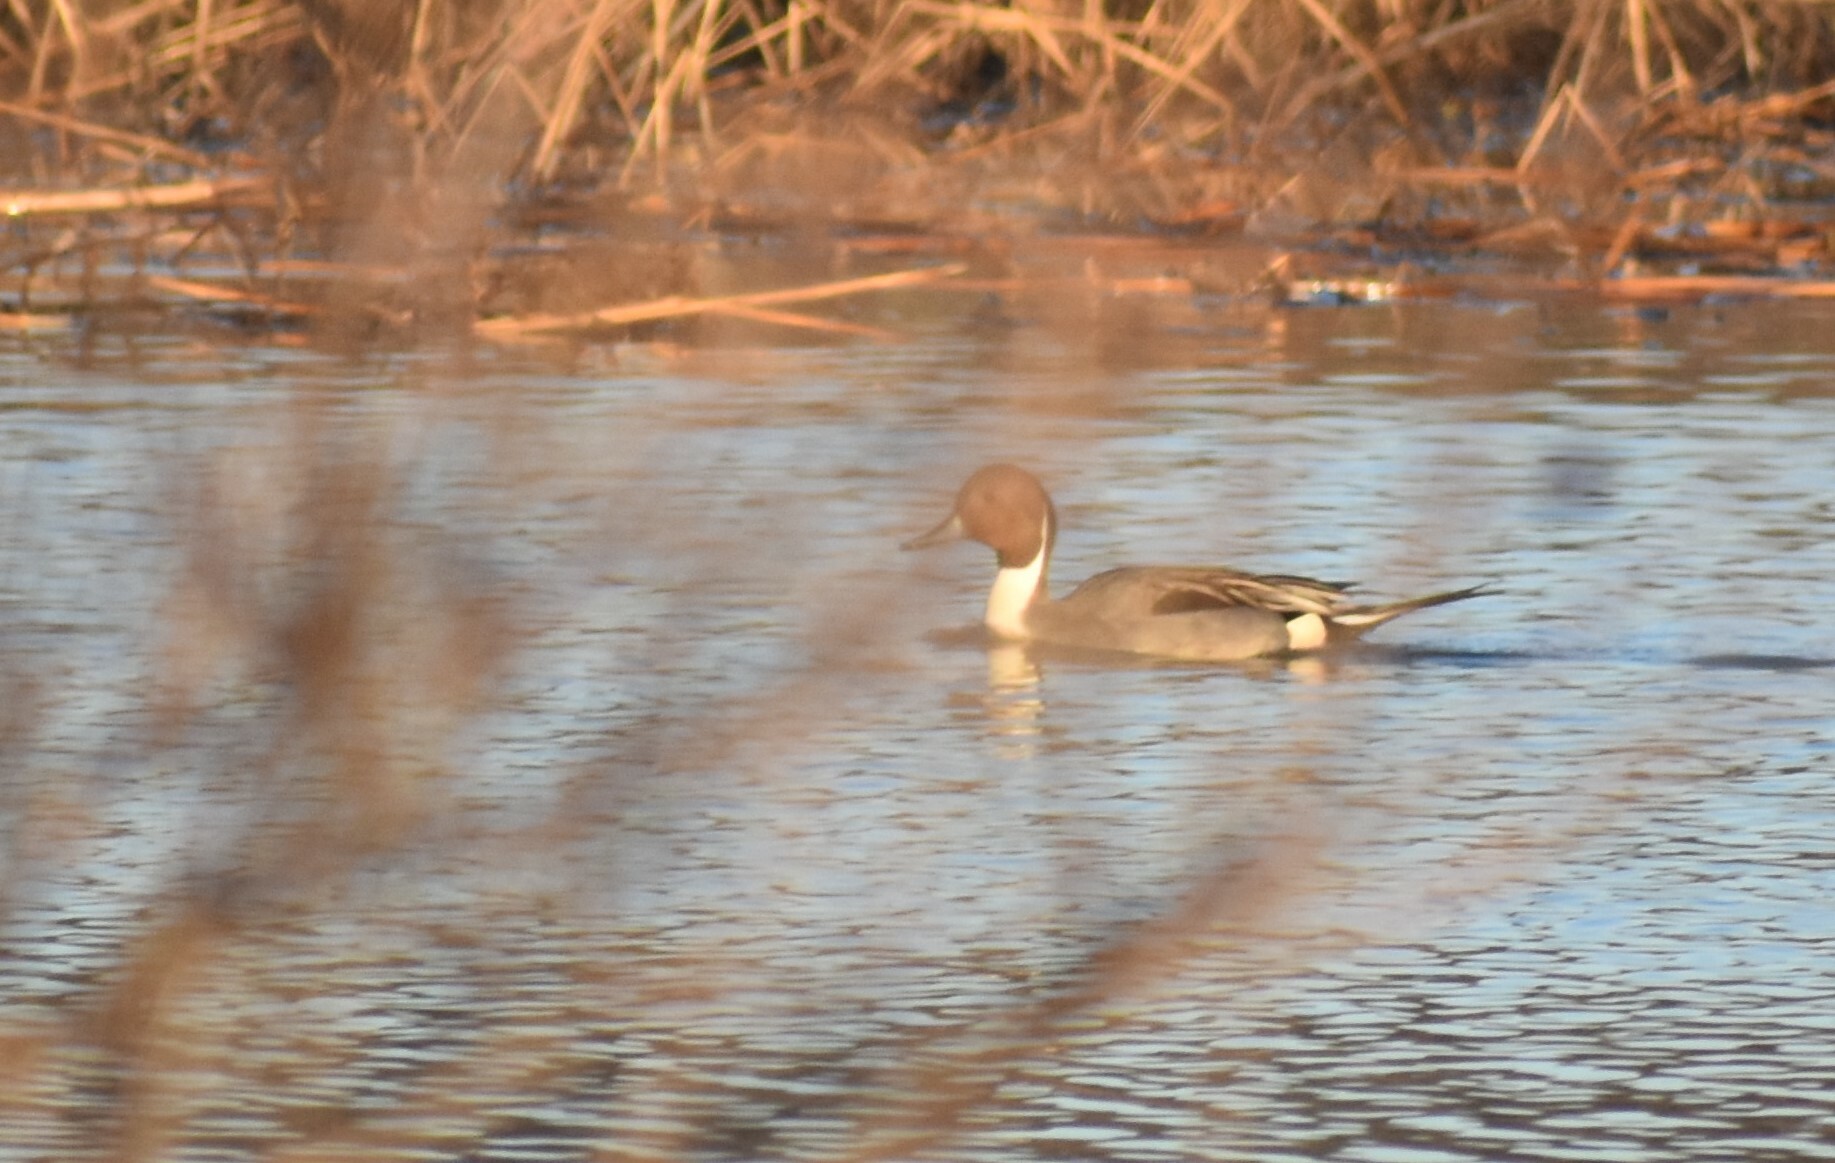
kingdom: Animalia
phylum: Chordata
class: Aves
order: Anseriformes
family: Anatidae
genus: Anas
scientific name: Anas acuta
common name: Northern pintail
